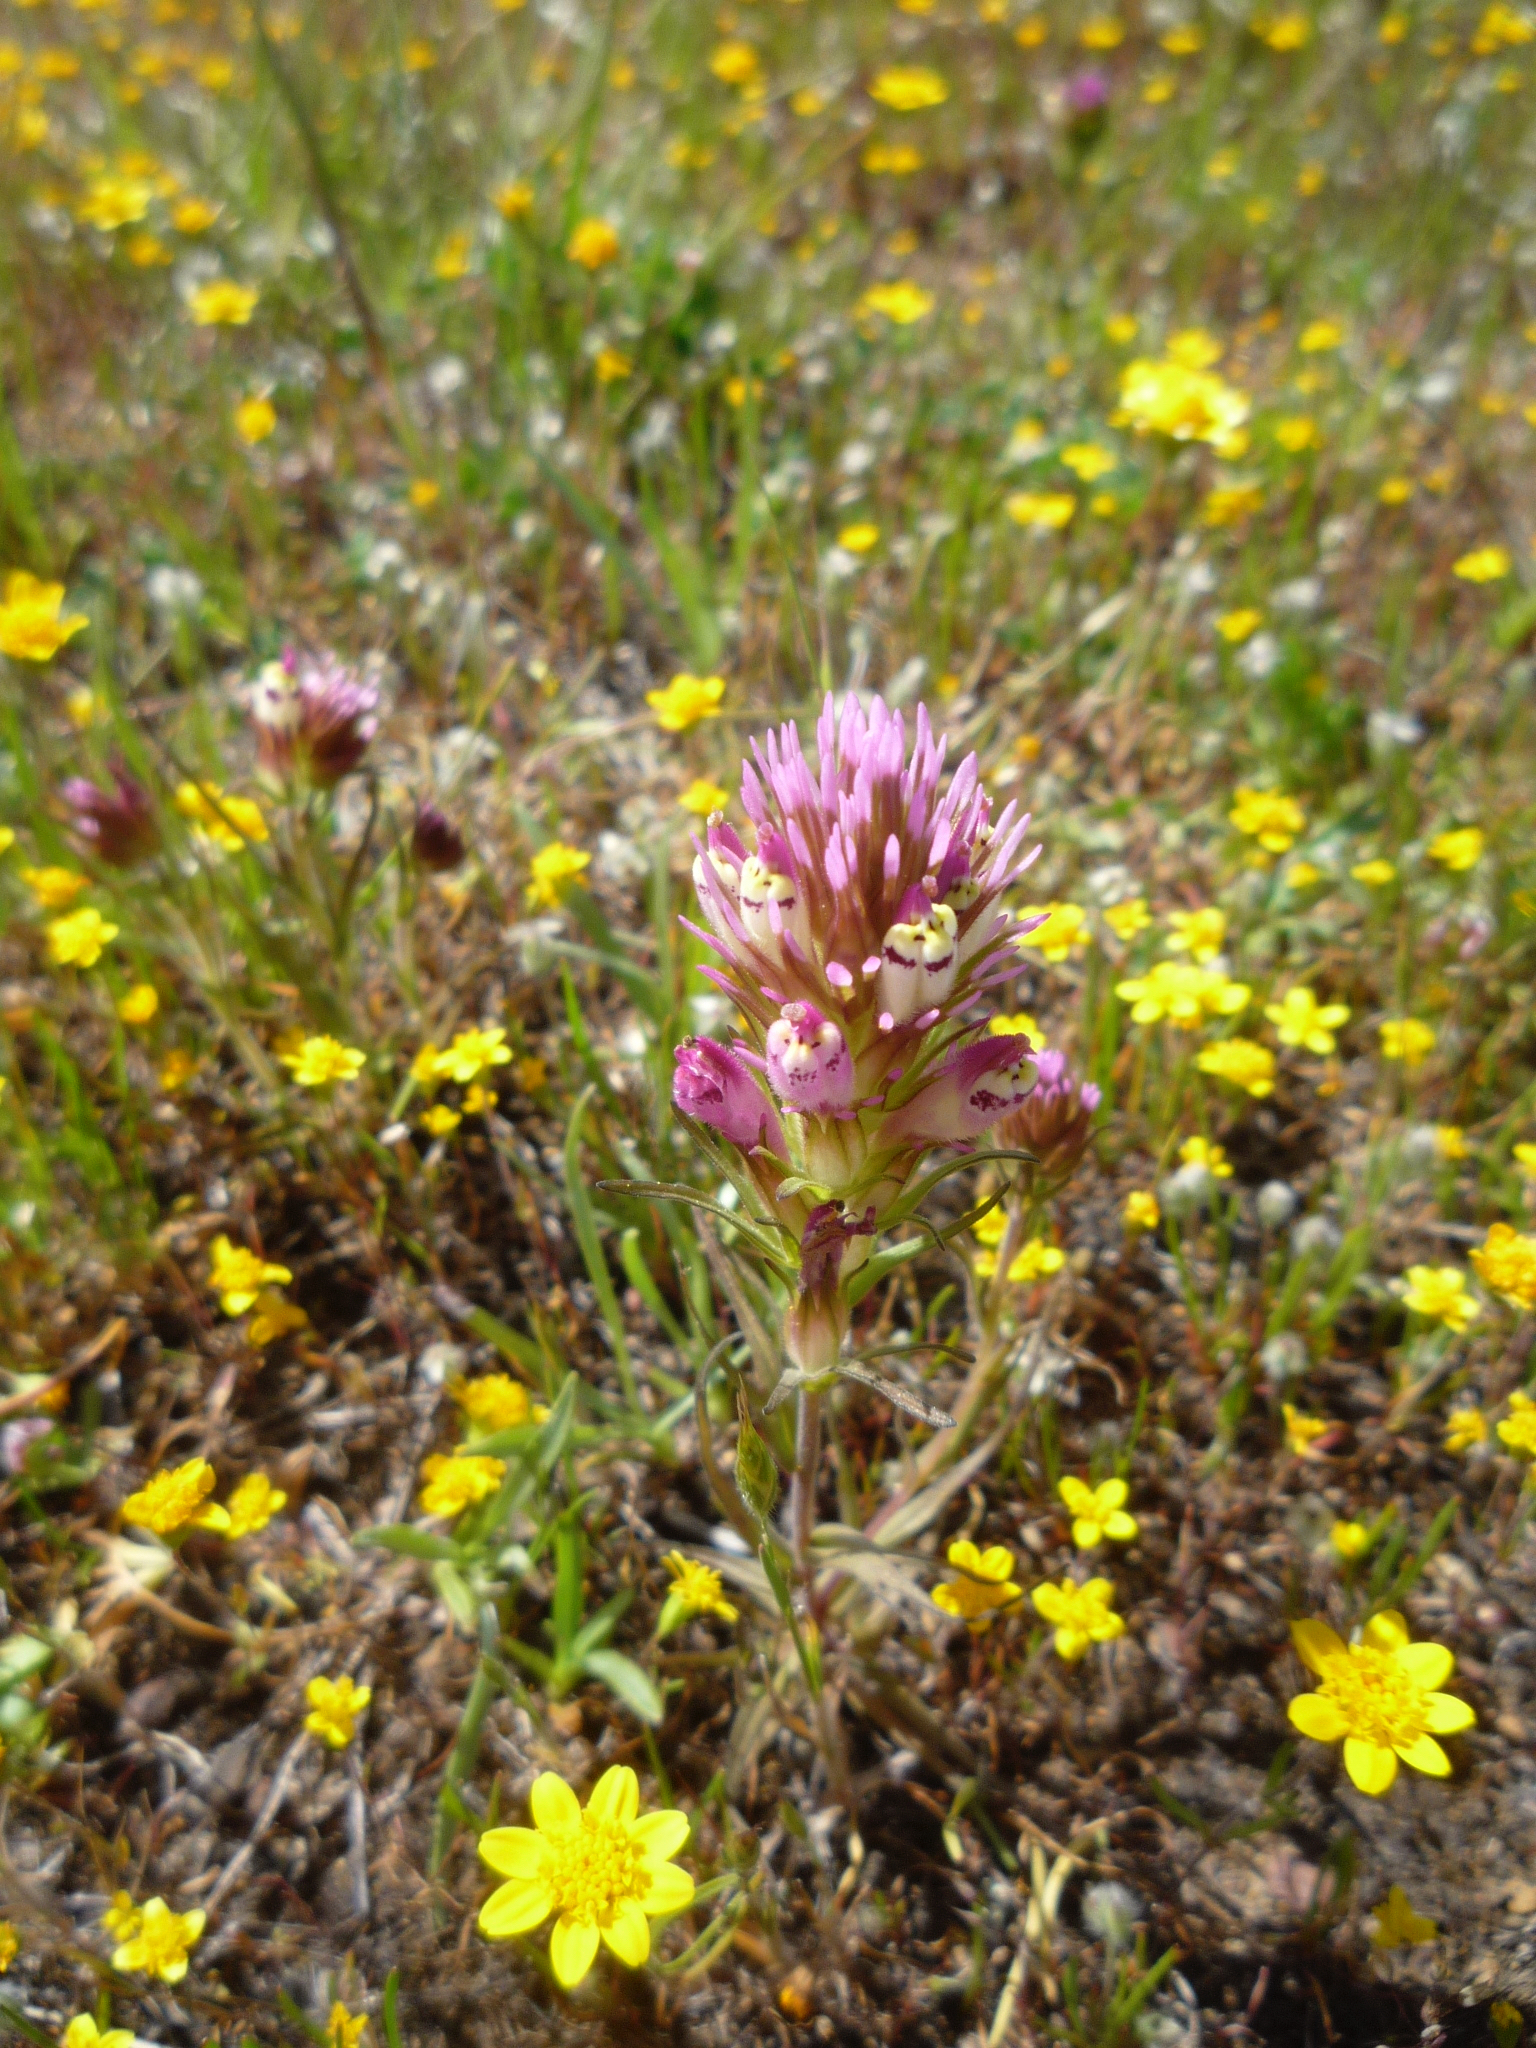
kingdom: Plantae
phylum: Tracheophyta
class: Magnoliopsida
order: Lamiales
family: Orobanchaceae
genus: Castilleja
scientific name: Castilleja densiflora
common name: Dense-flower indian paintbrush
